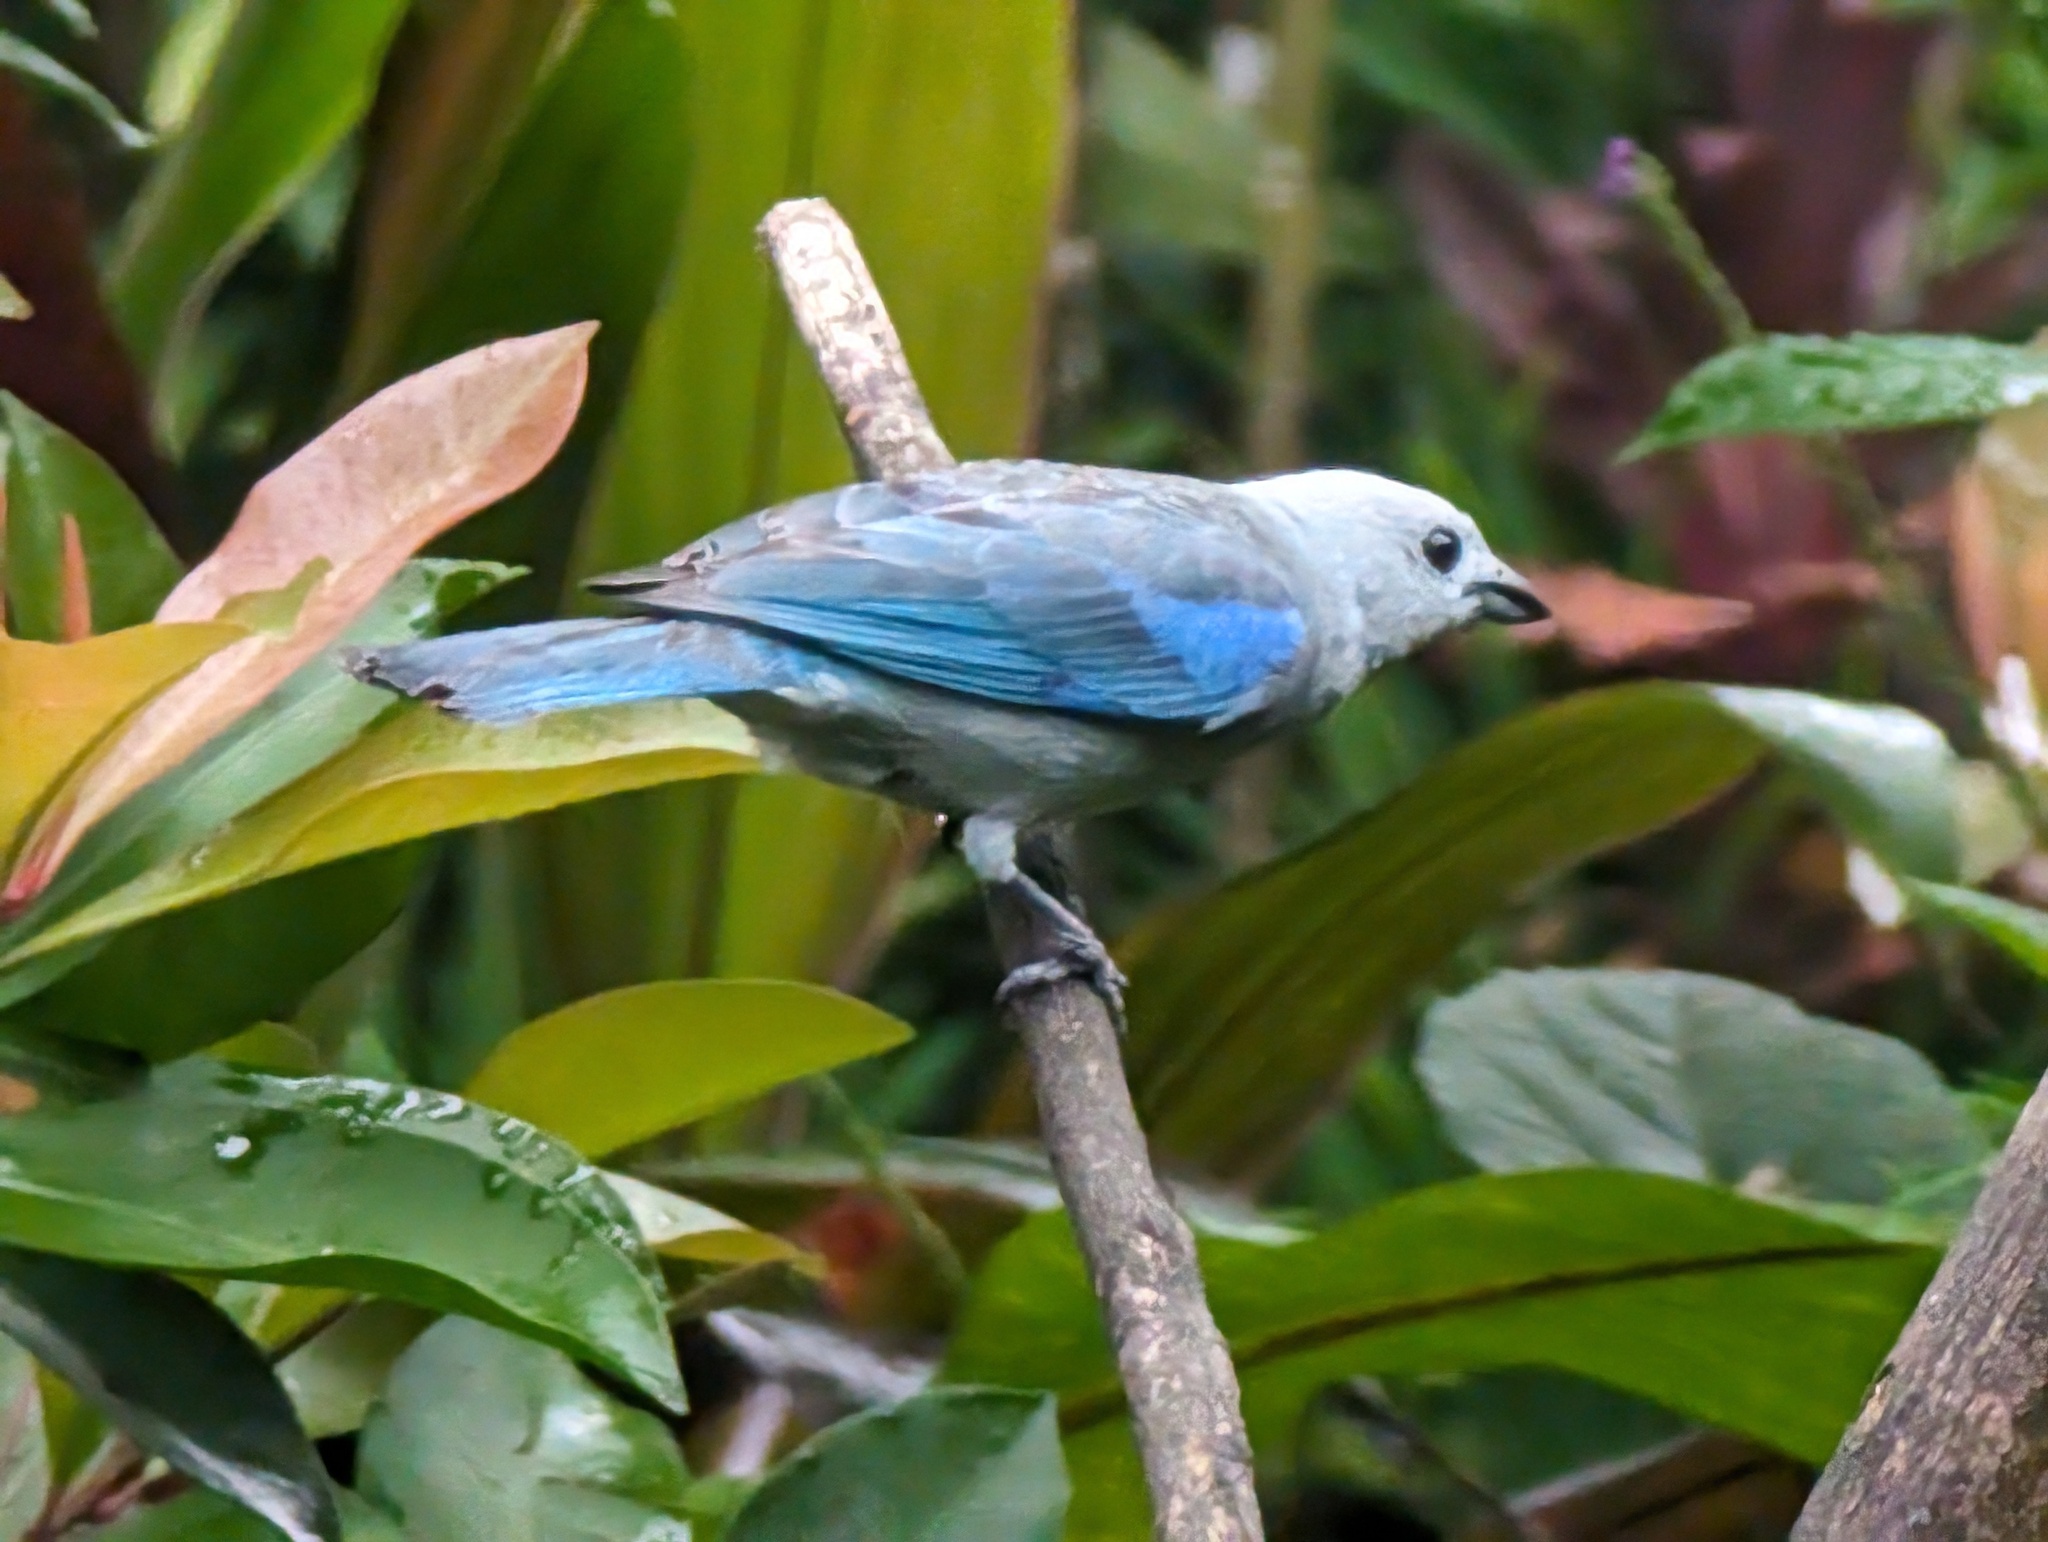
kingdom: Animalia
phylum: Chordata
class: Aves
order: Passeriformes
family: Thraupidae
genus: Thraupis
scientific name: Thraupis episcopus
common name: Blue-grey tanager
